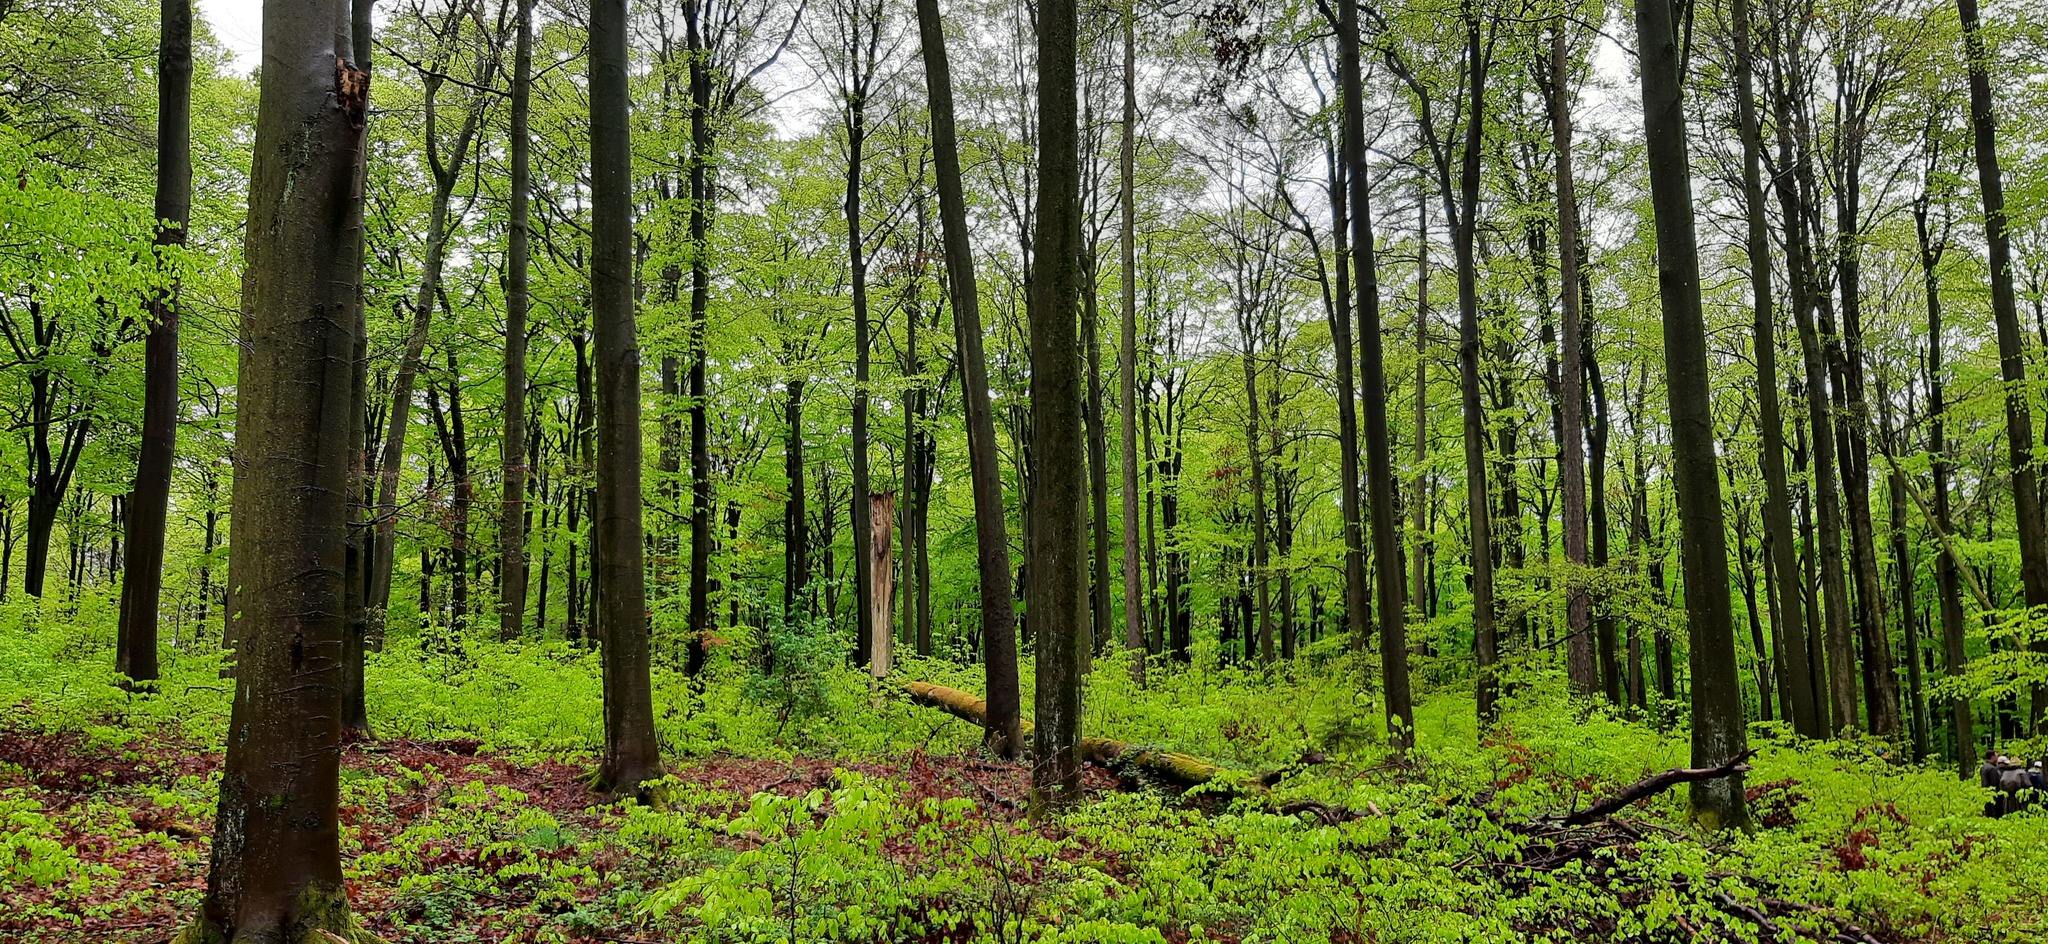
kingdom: Plantae
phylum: Tracheophyta
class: Magnoliopsida
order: Fagales
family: Fagaceae
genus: Fagus
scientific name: Fagus sylvatica
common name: Beech
